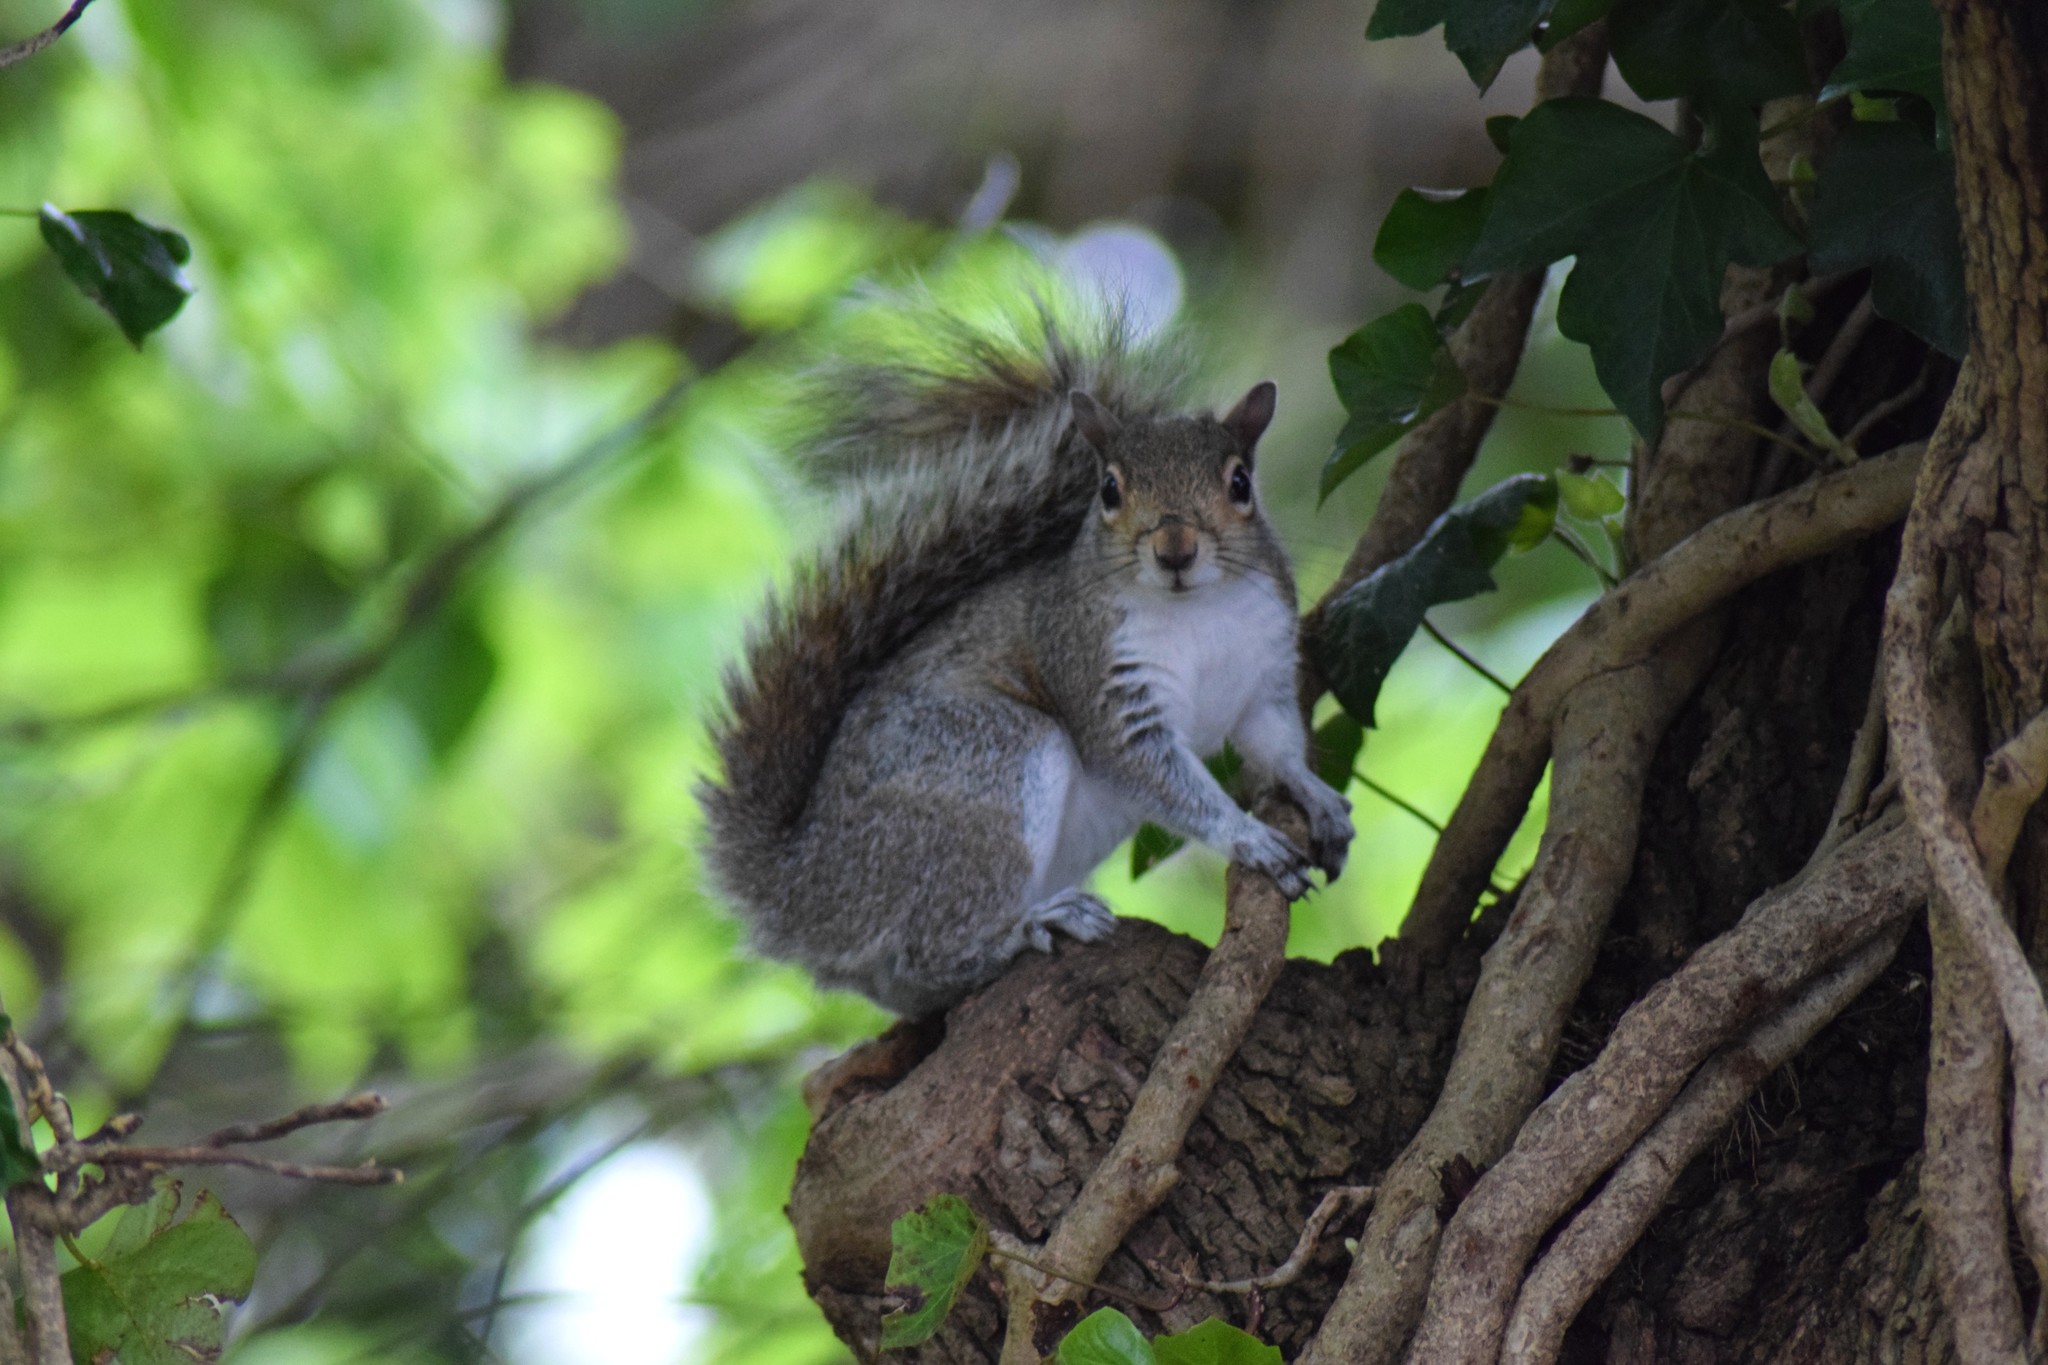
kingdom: Animalia
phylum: Chordata
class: Mammalia
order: Rodentia
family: Sciuridae
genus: Sciurus
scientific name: Sciurus carolinensis
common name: Eastern gray squirrel
